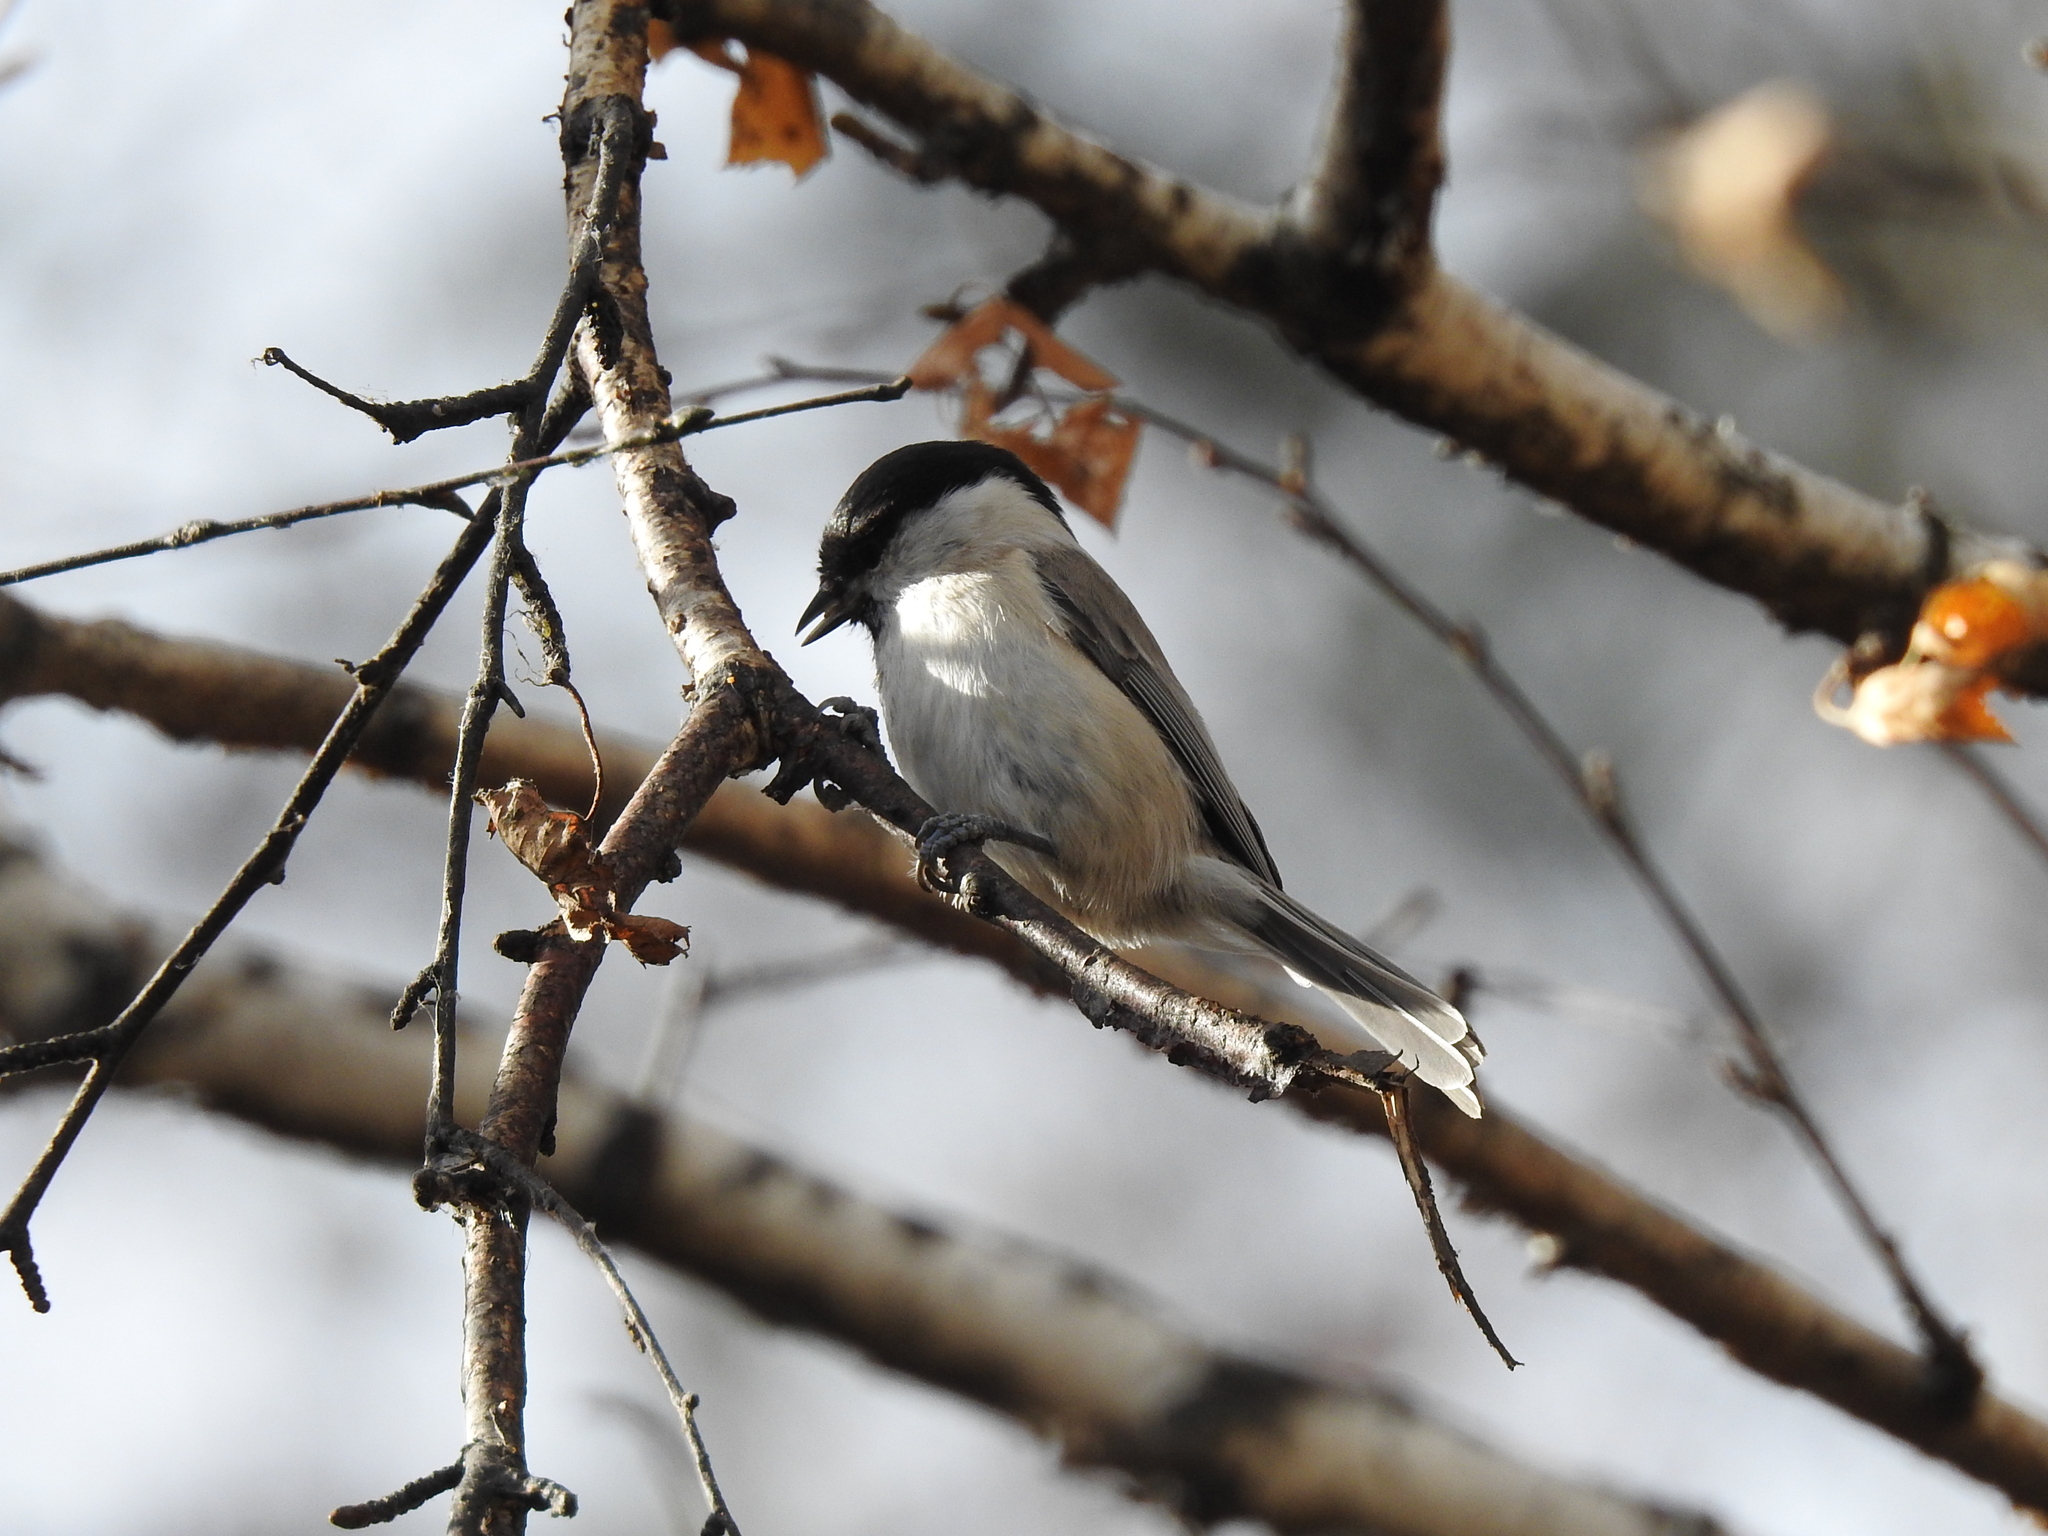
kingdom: Animalia
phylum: Chordata
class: Aves
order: Passeriformes
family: Paridae
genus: Poecile
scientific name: Poecile palustris
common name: Marsh tit
